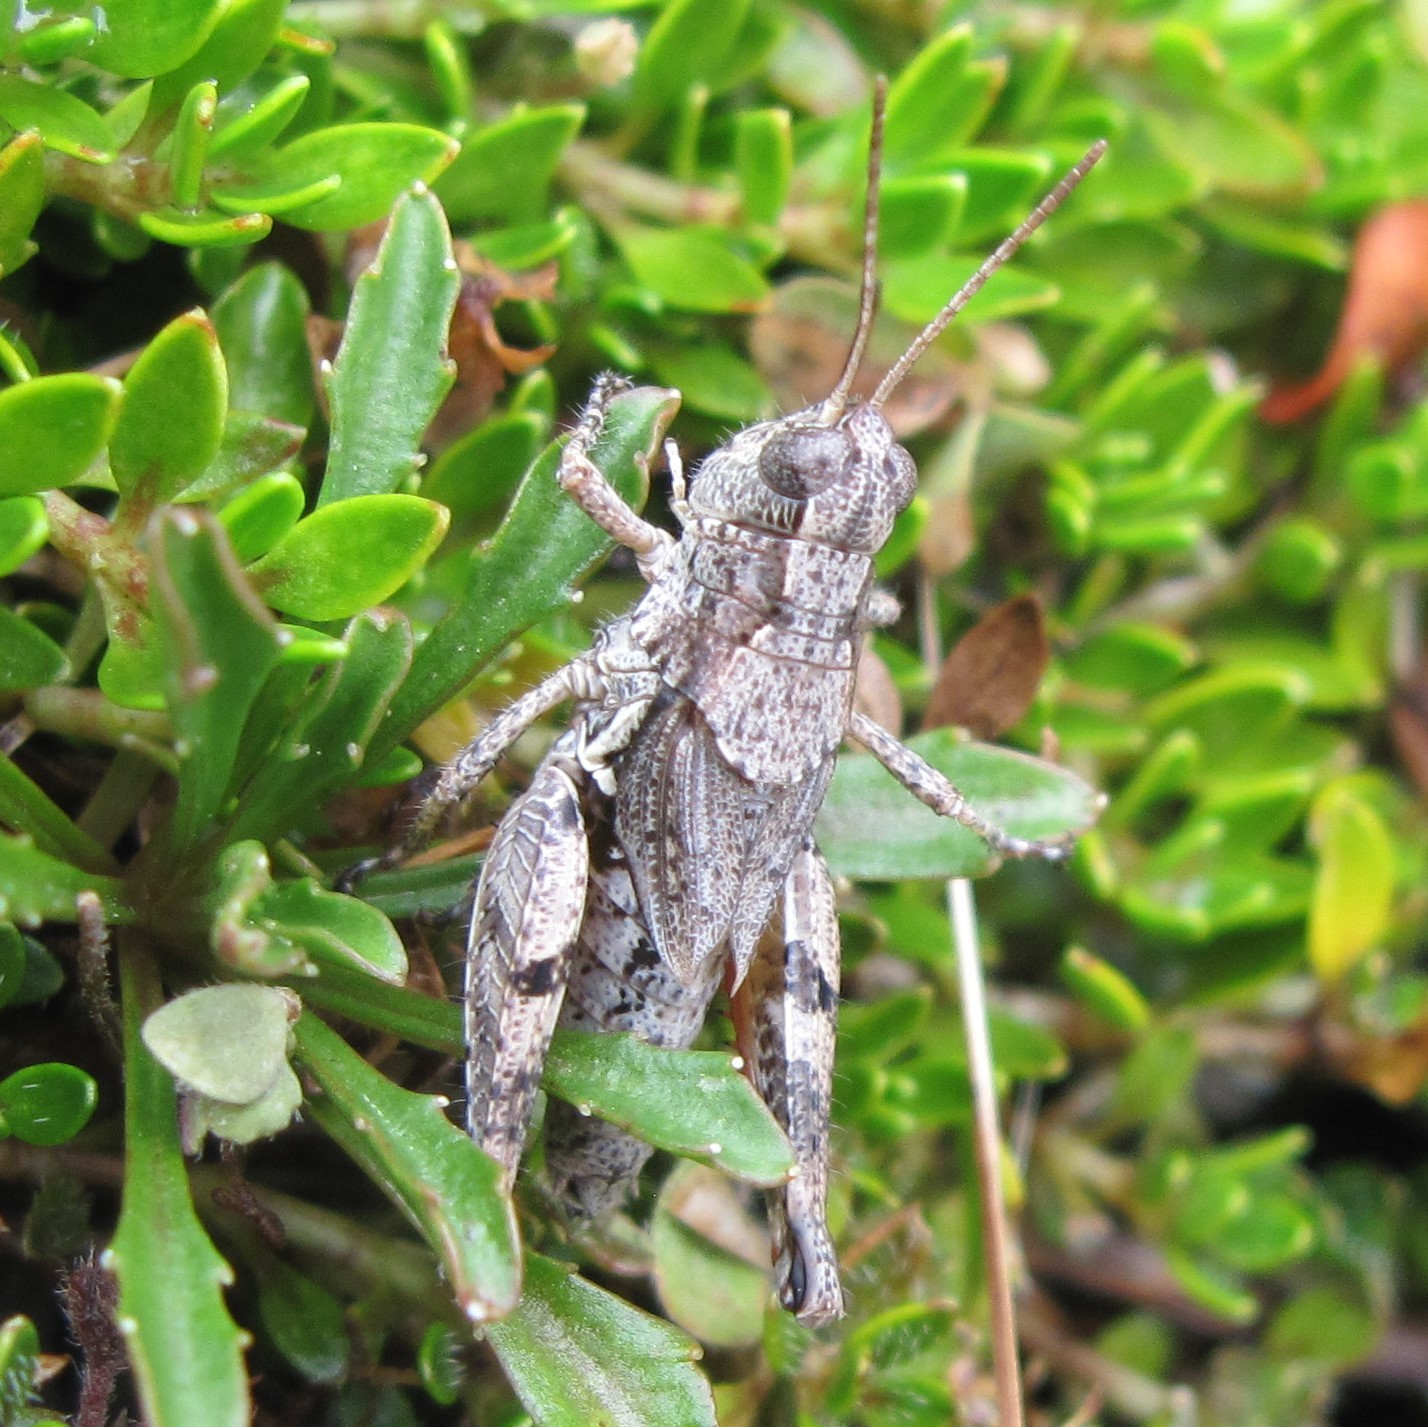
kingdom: Animalia
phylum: Arthropoda
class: Insecta
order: Orthoptera
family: Acrididae
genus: Phaulacridium
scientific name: Phaulacridium marginale
